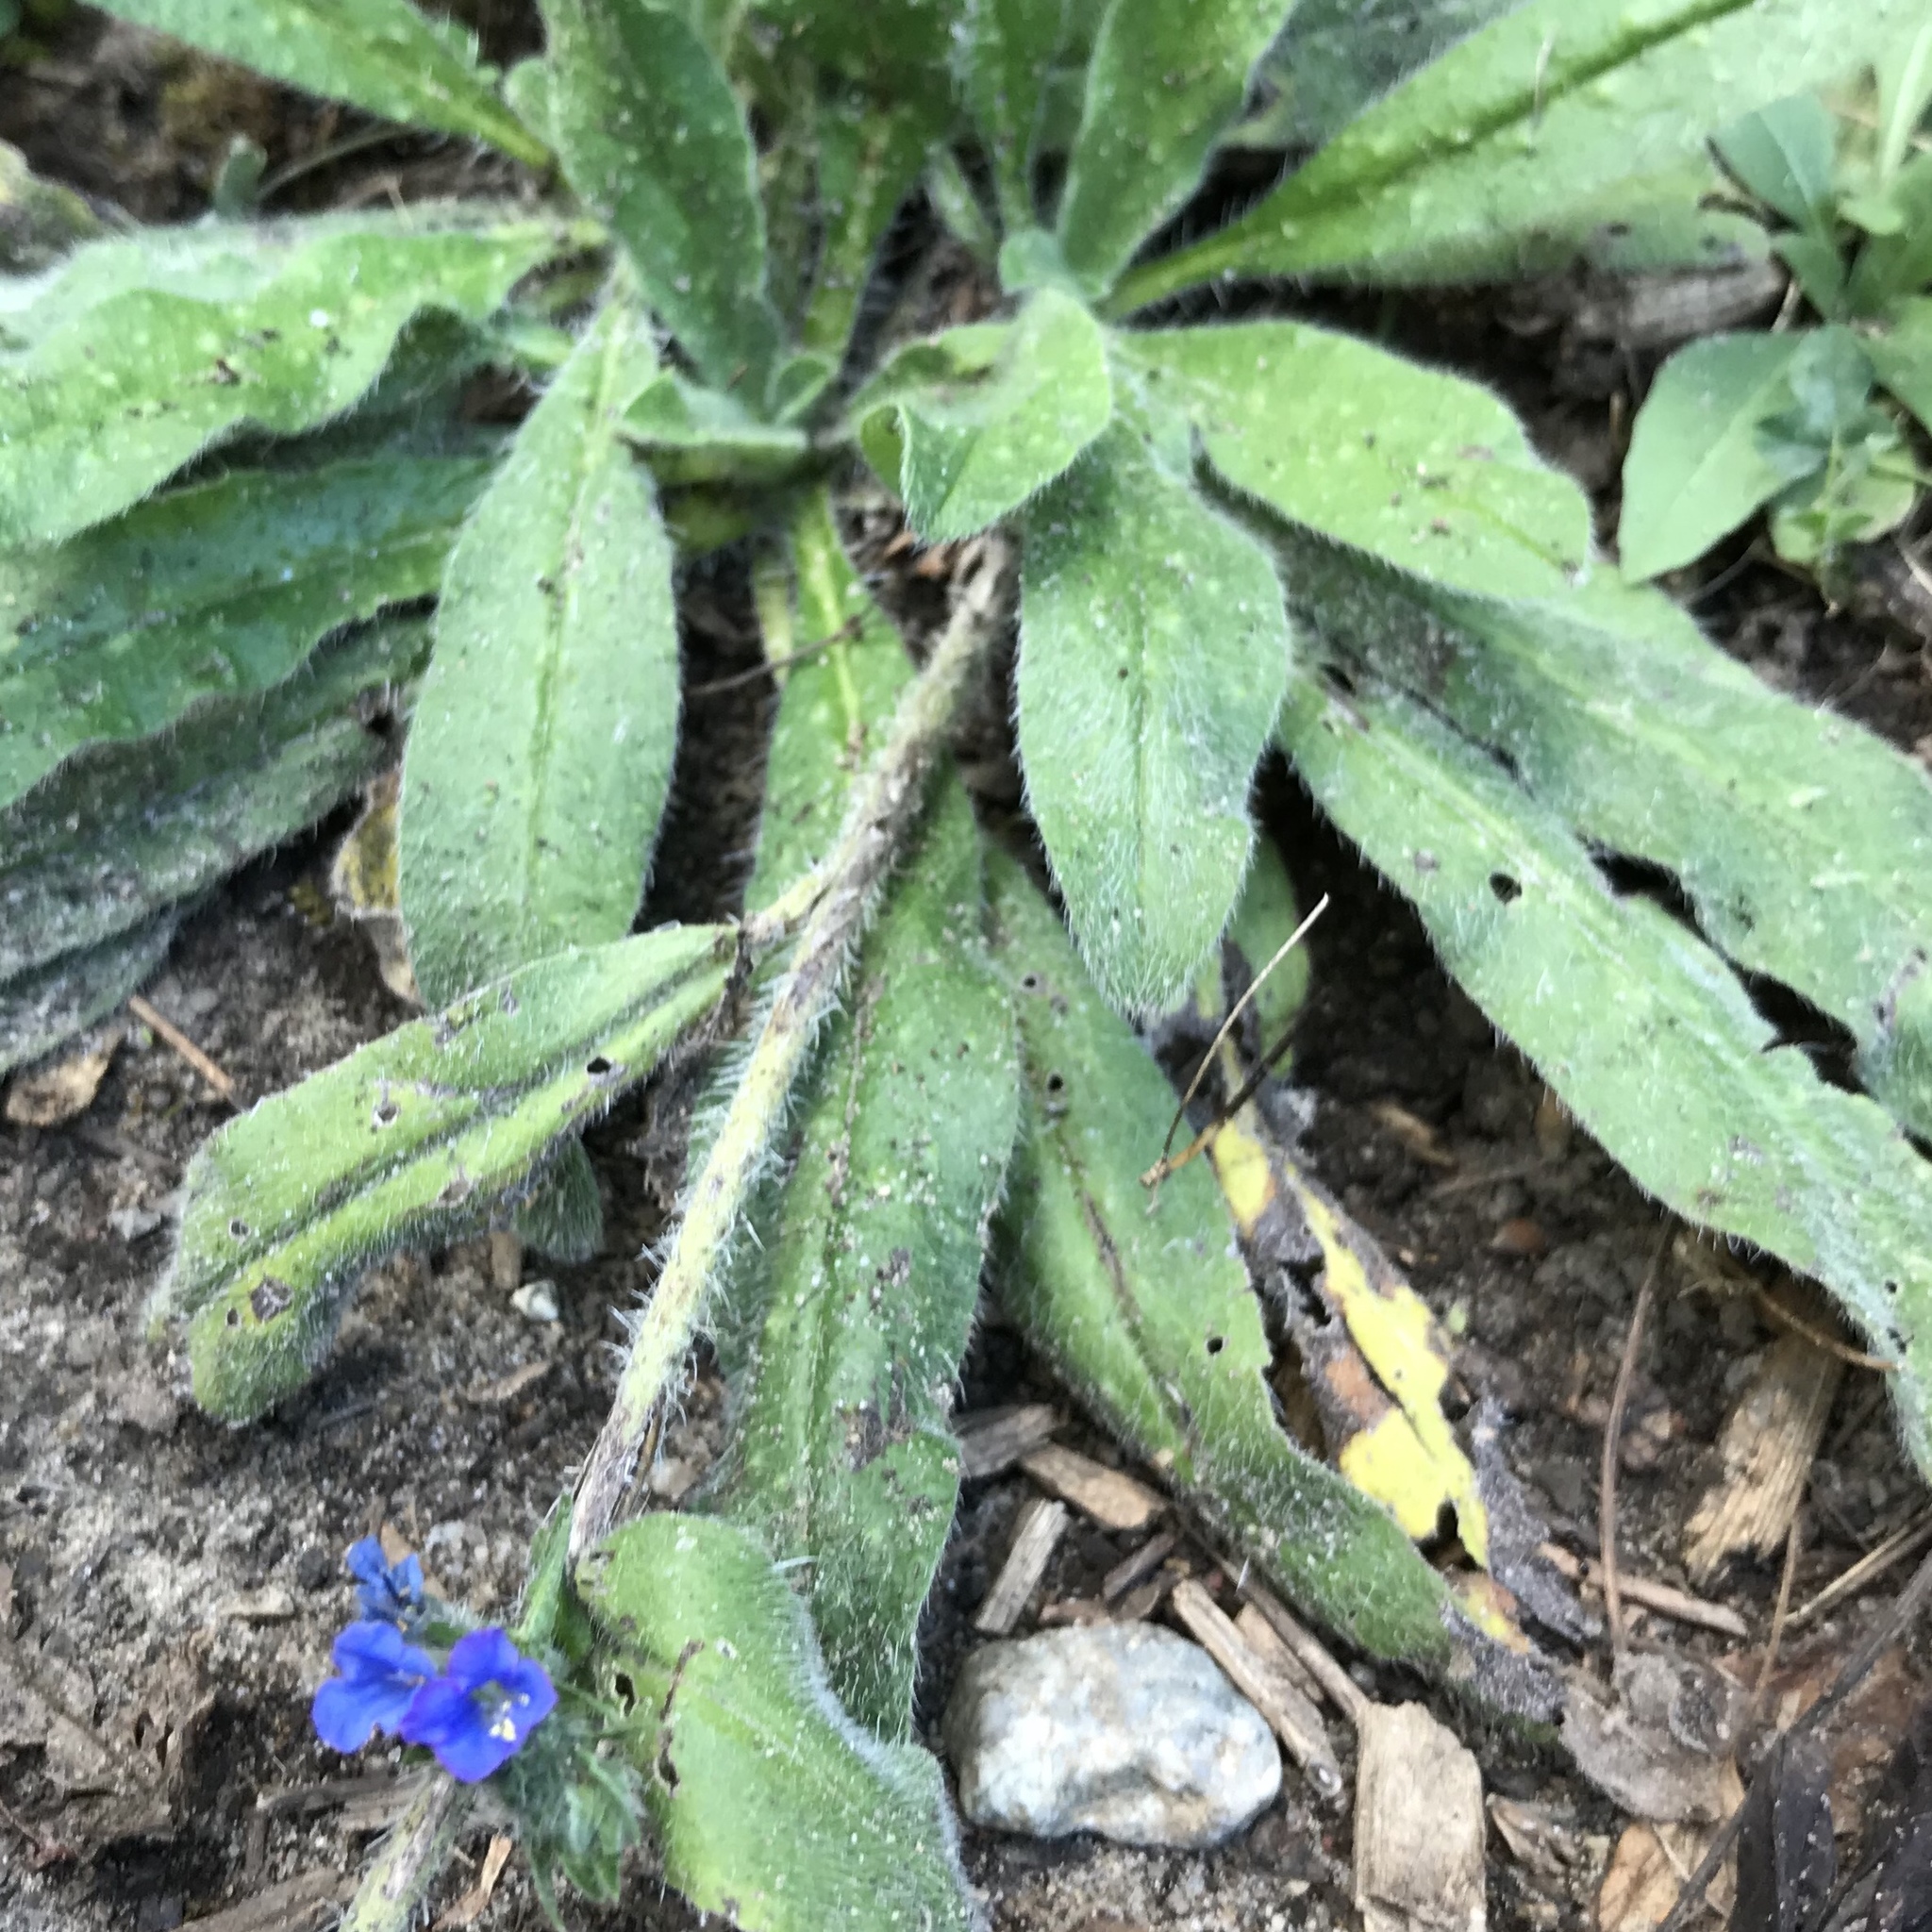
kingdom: Plantae
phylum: Tracheophyta
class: Magnoliopsida
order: Boraginales
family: Boraginaceae
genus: Echium
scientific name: Echium vulgare
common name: Common viper's bugloss
